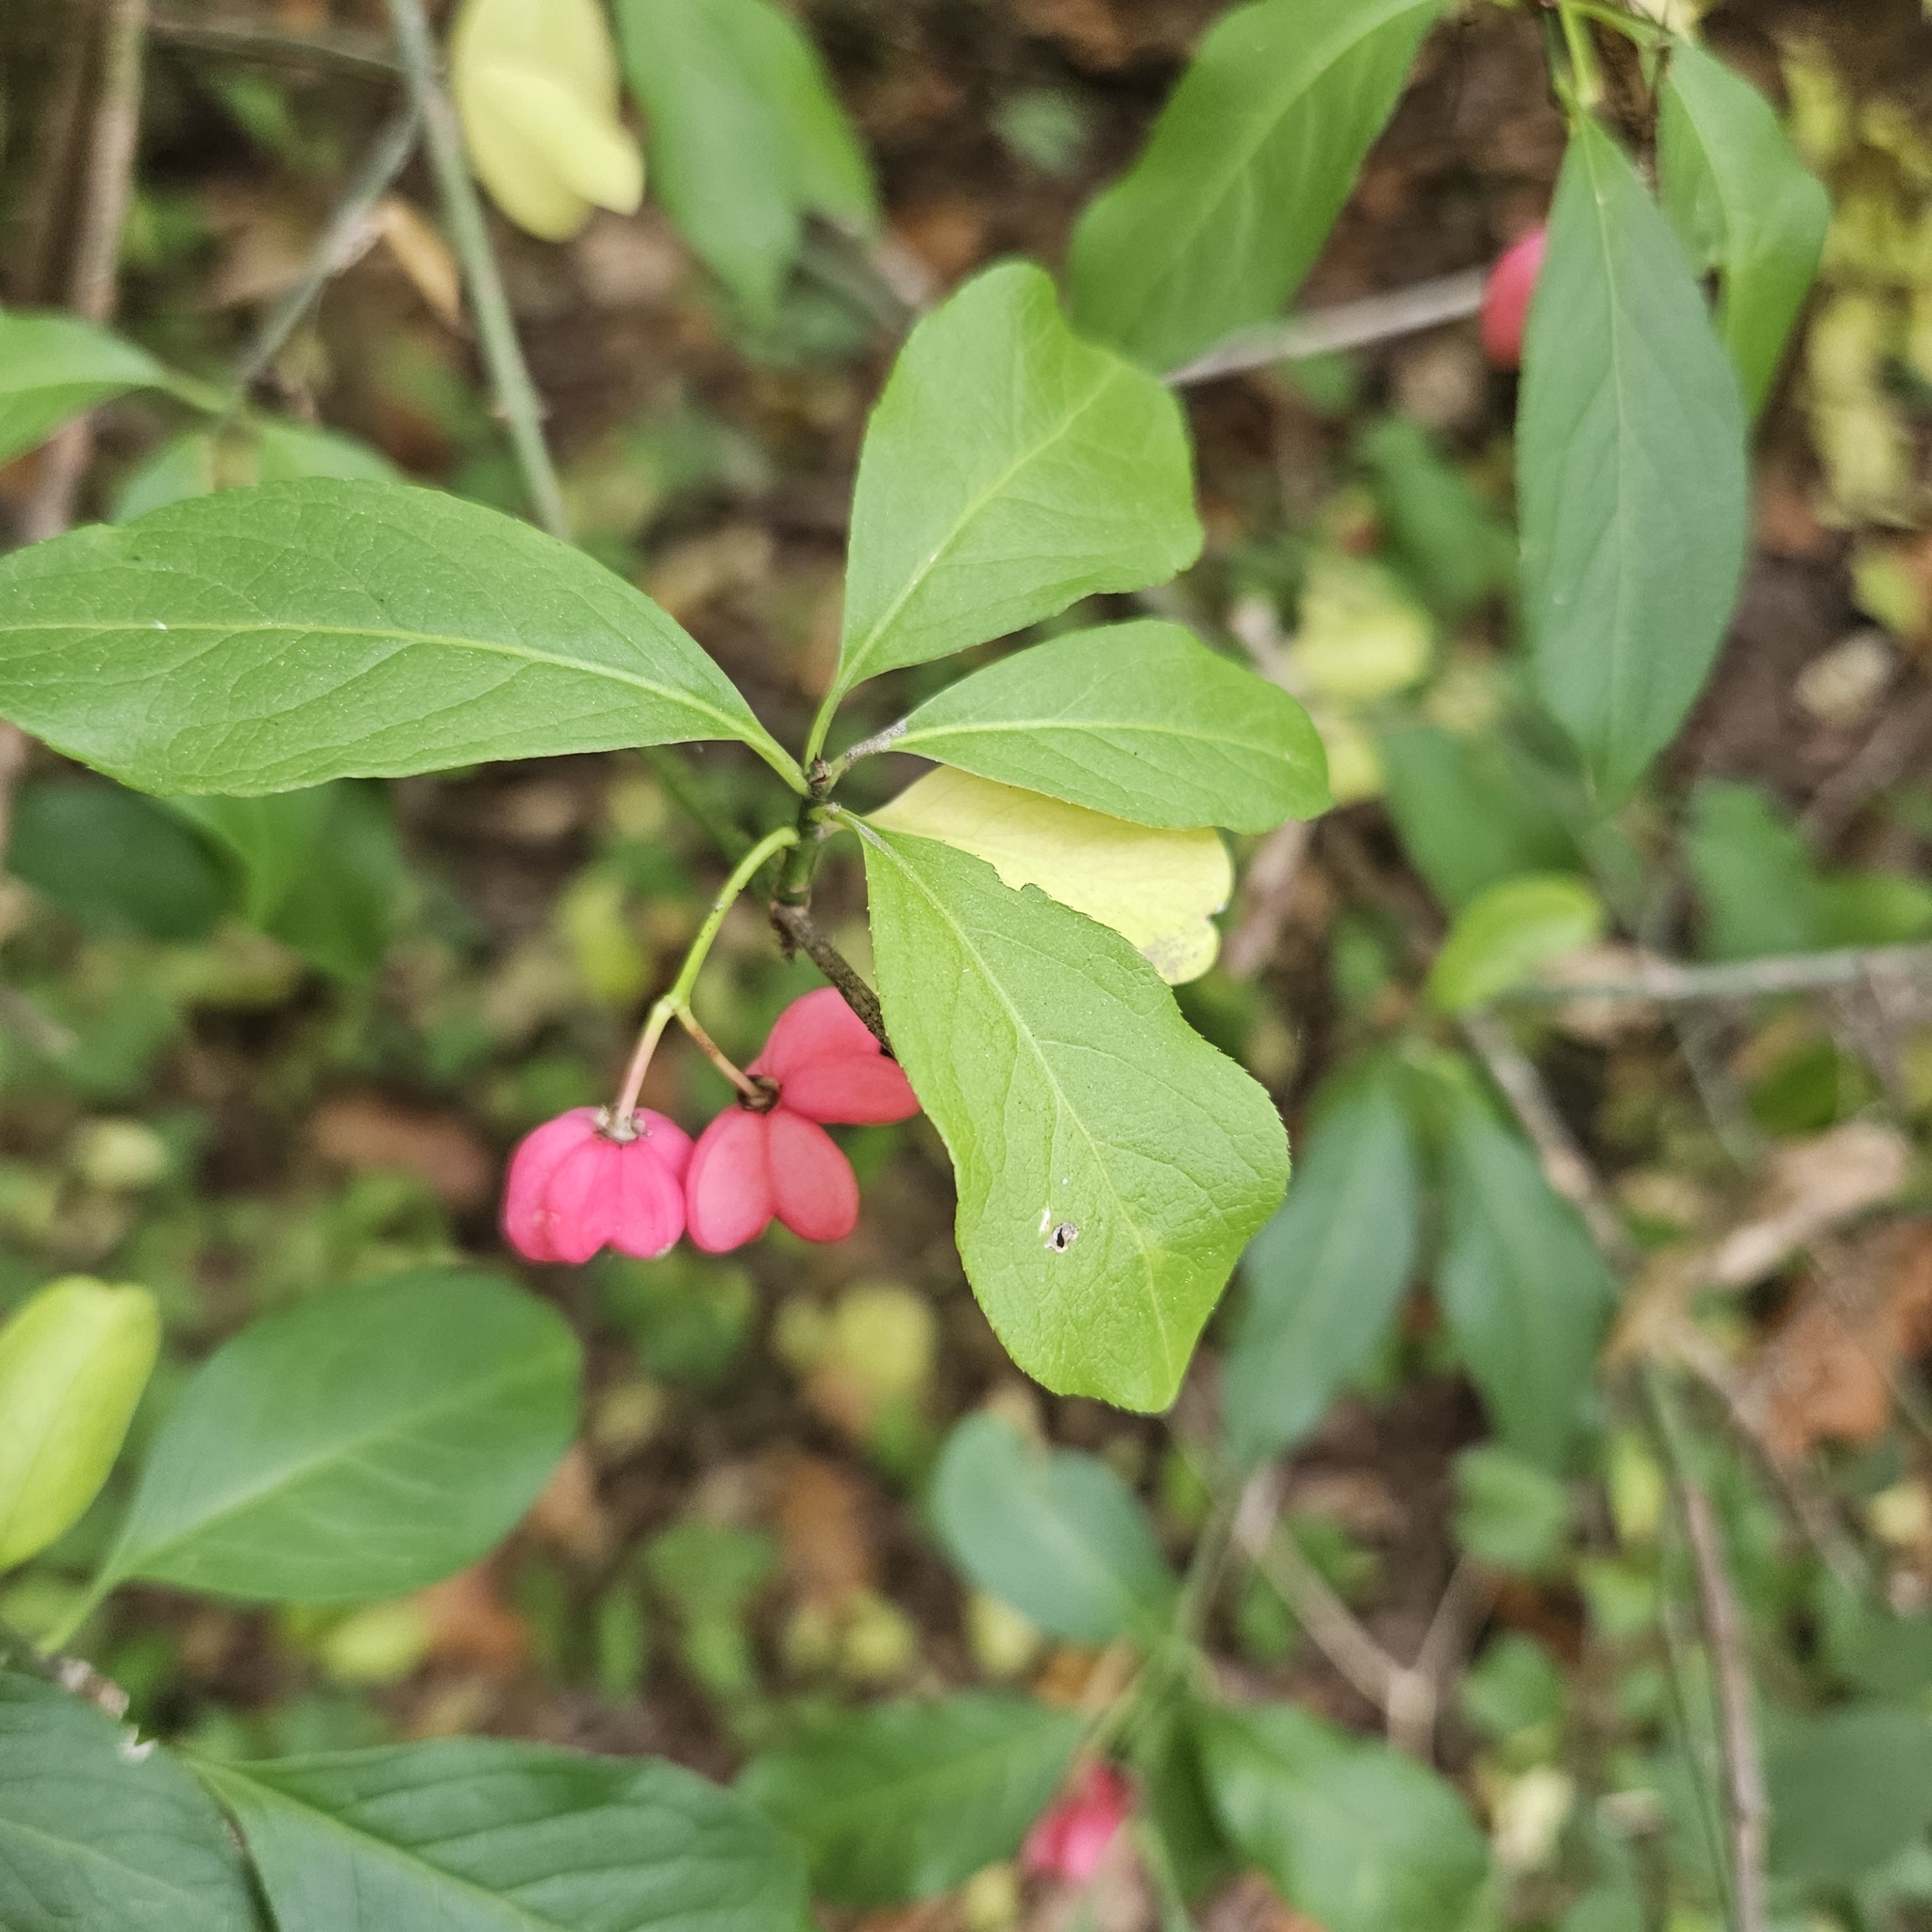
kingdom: Plantae
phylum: Tracheophyta
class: Magnoliopsida
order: Celastrales
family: Celastraceae
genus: Euonymus
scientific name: Euonymus europaeus
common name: Spindle
